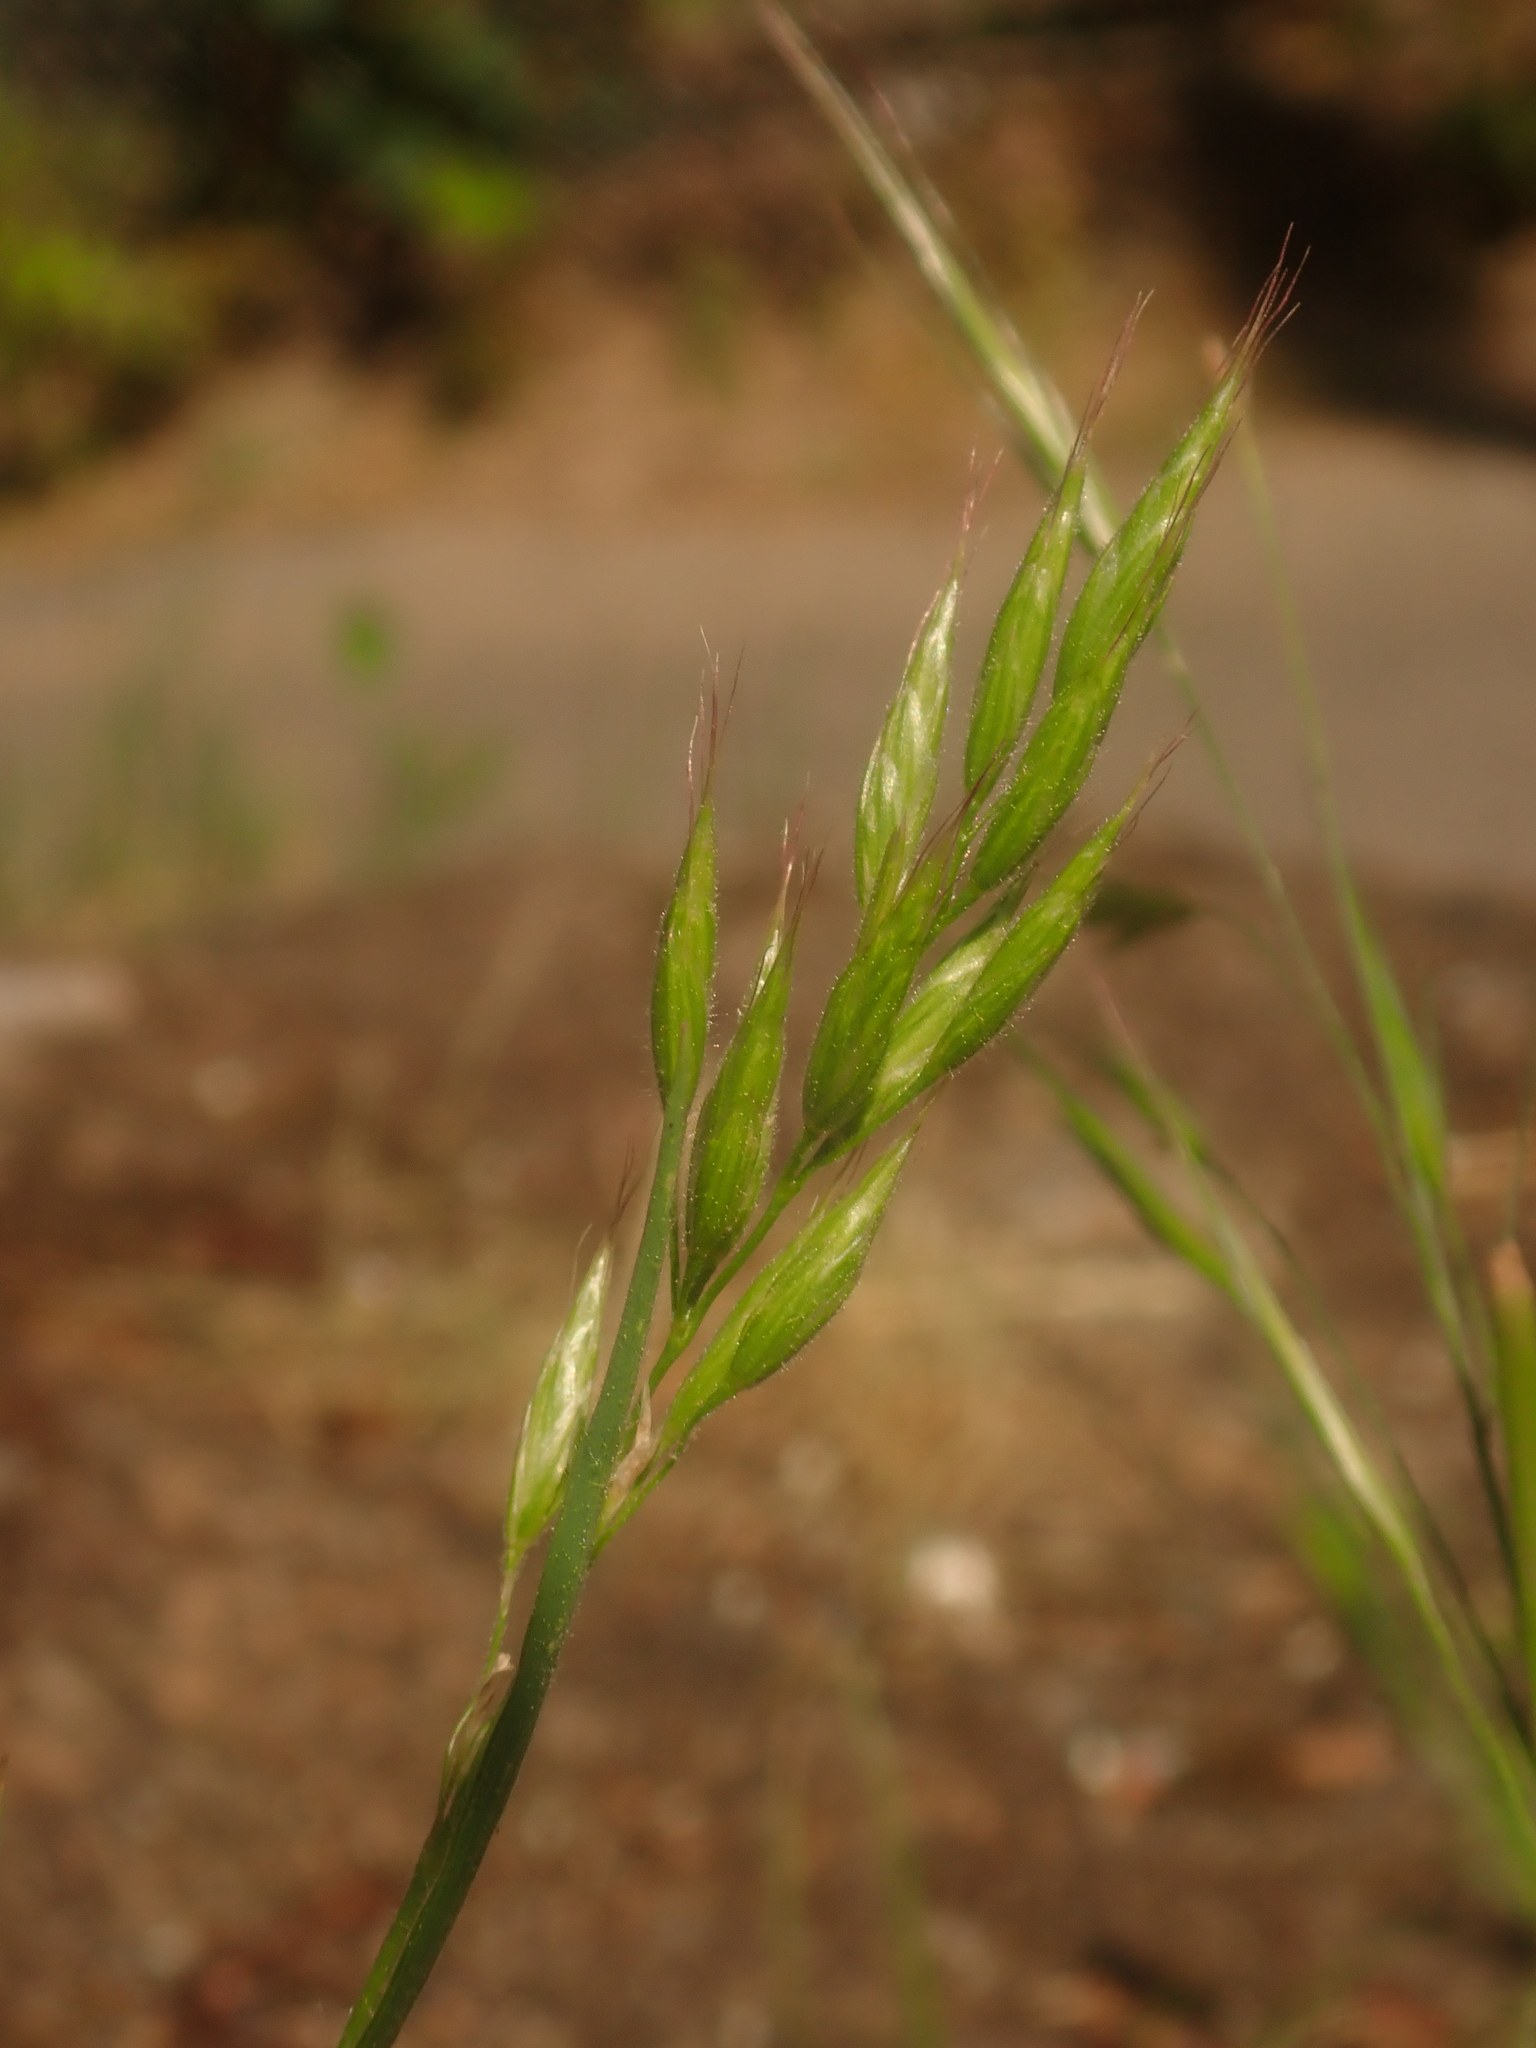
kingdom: Plantae
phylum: Tracheophyta
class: Liliopsida
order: Poales
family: Poaceae
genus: Bromus
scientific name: Bromus hordeaceus
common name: Soft brome
